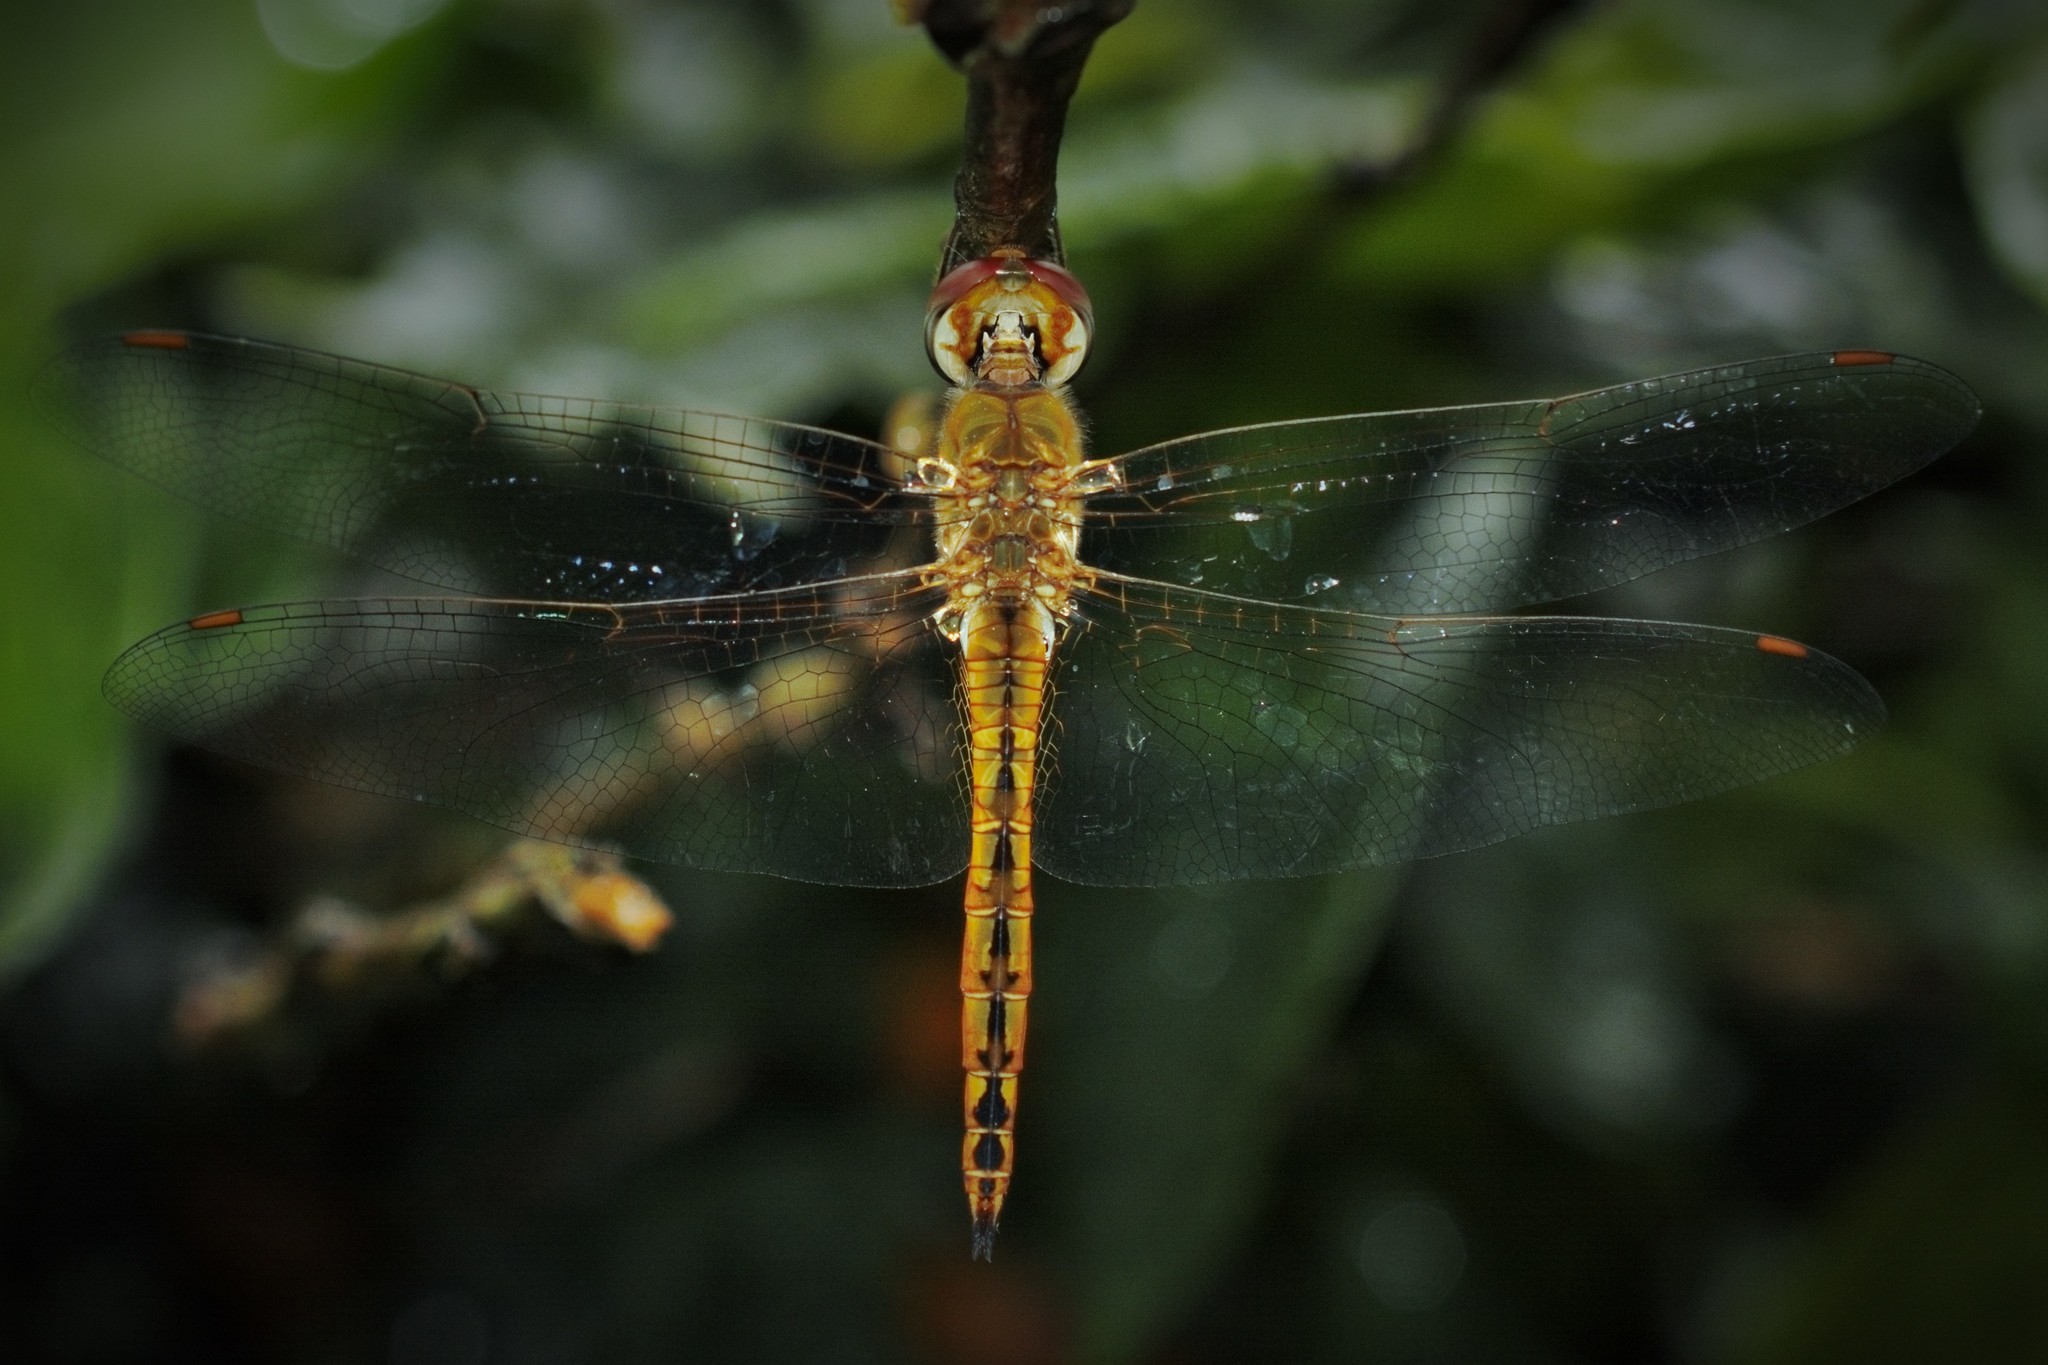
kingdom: Animalia
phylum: Arthropoda
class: Insecta
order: Odonata
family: Libellulidae
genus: Pantala
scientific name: Pantala flavescens
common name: Wandering glider
